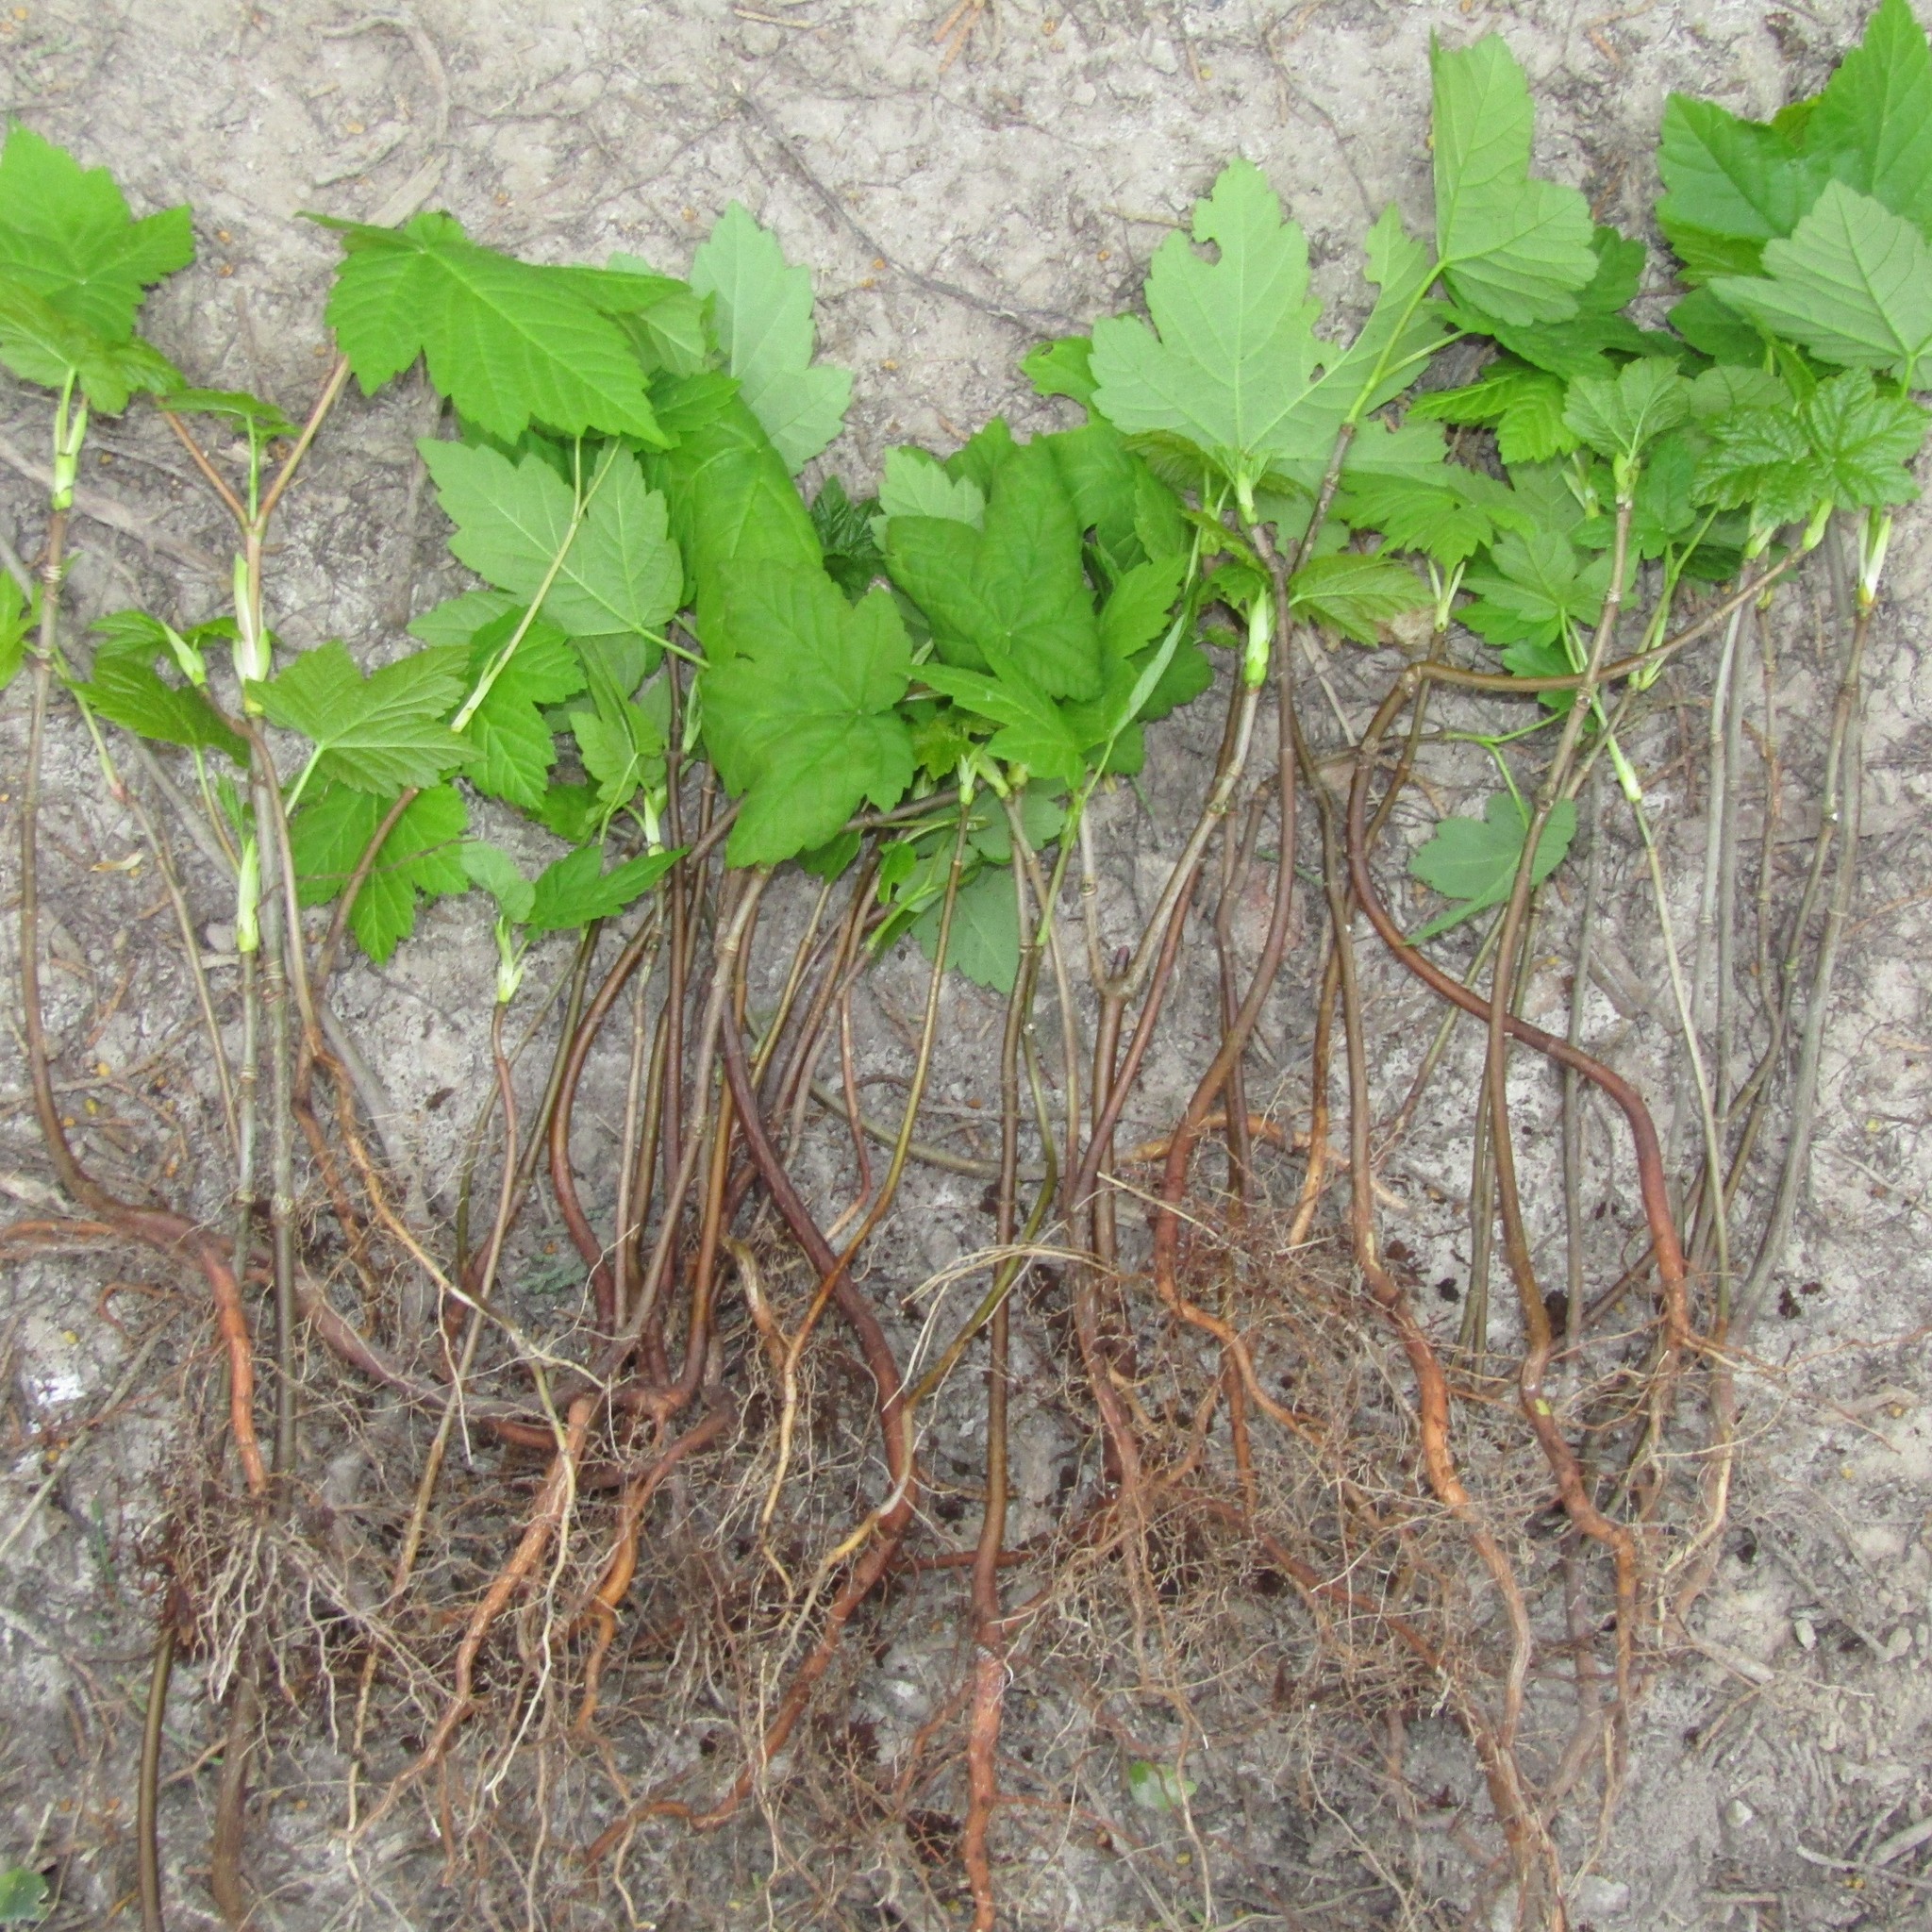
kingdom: Plantae
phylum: Tracheophyta
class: Magnoliopsida
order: Sapindales
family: Sapindaceae
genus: Acer
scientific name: Acer pseudoplatanus
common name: Sycamore
